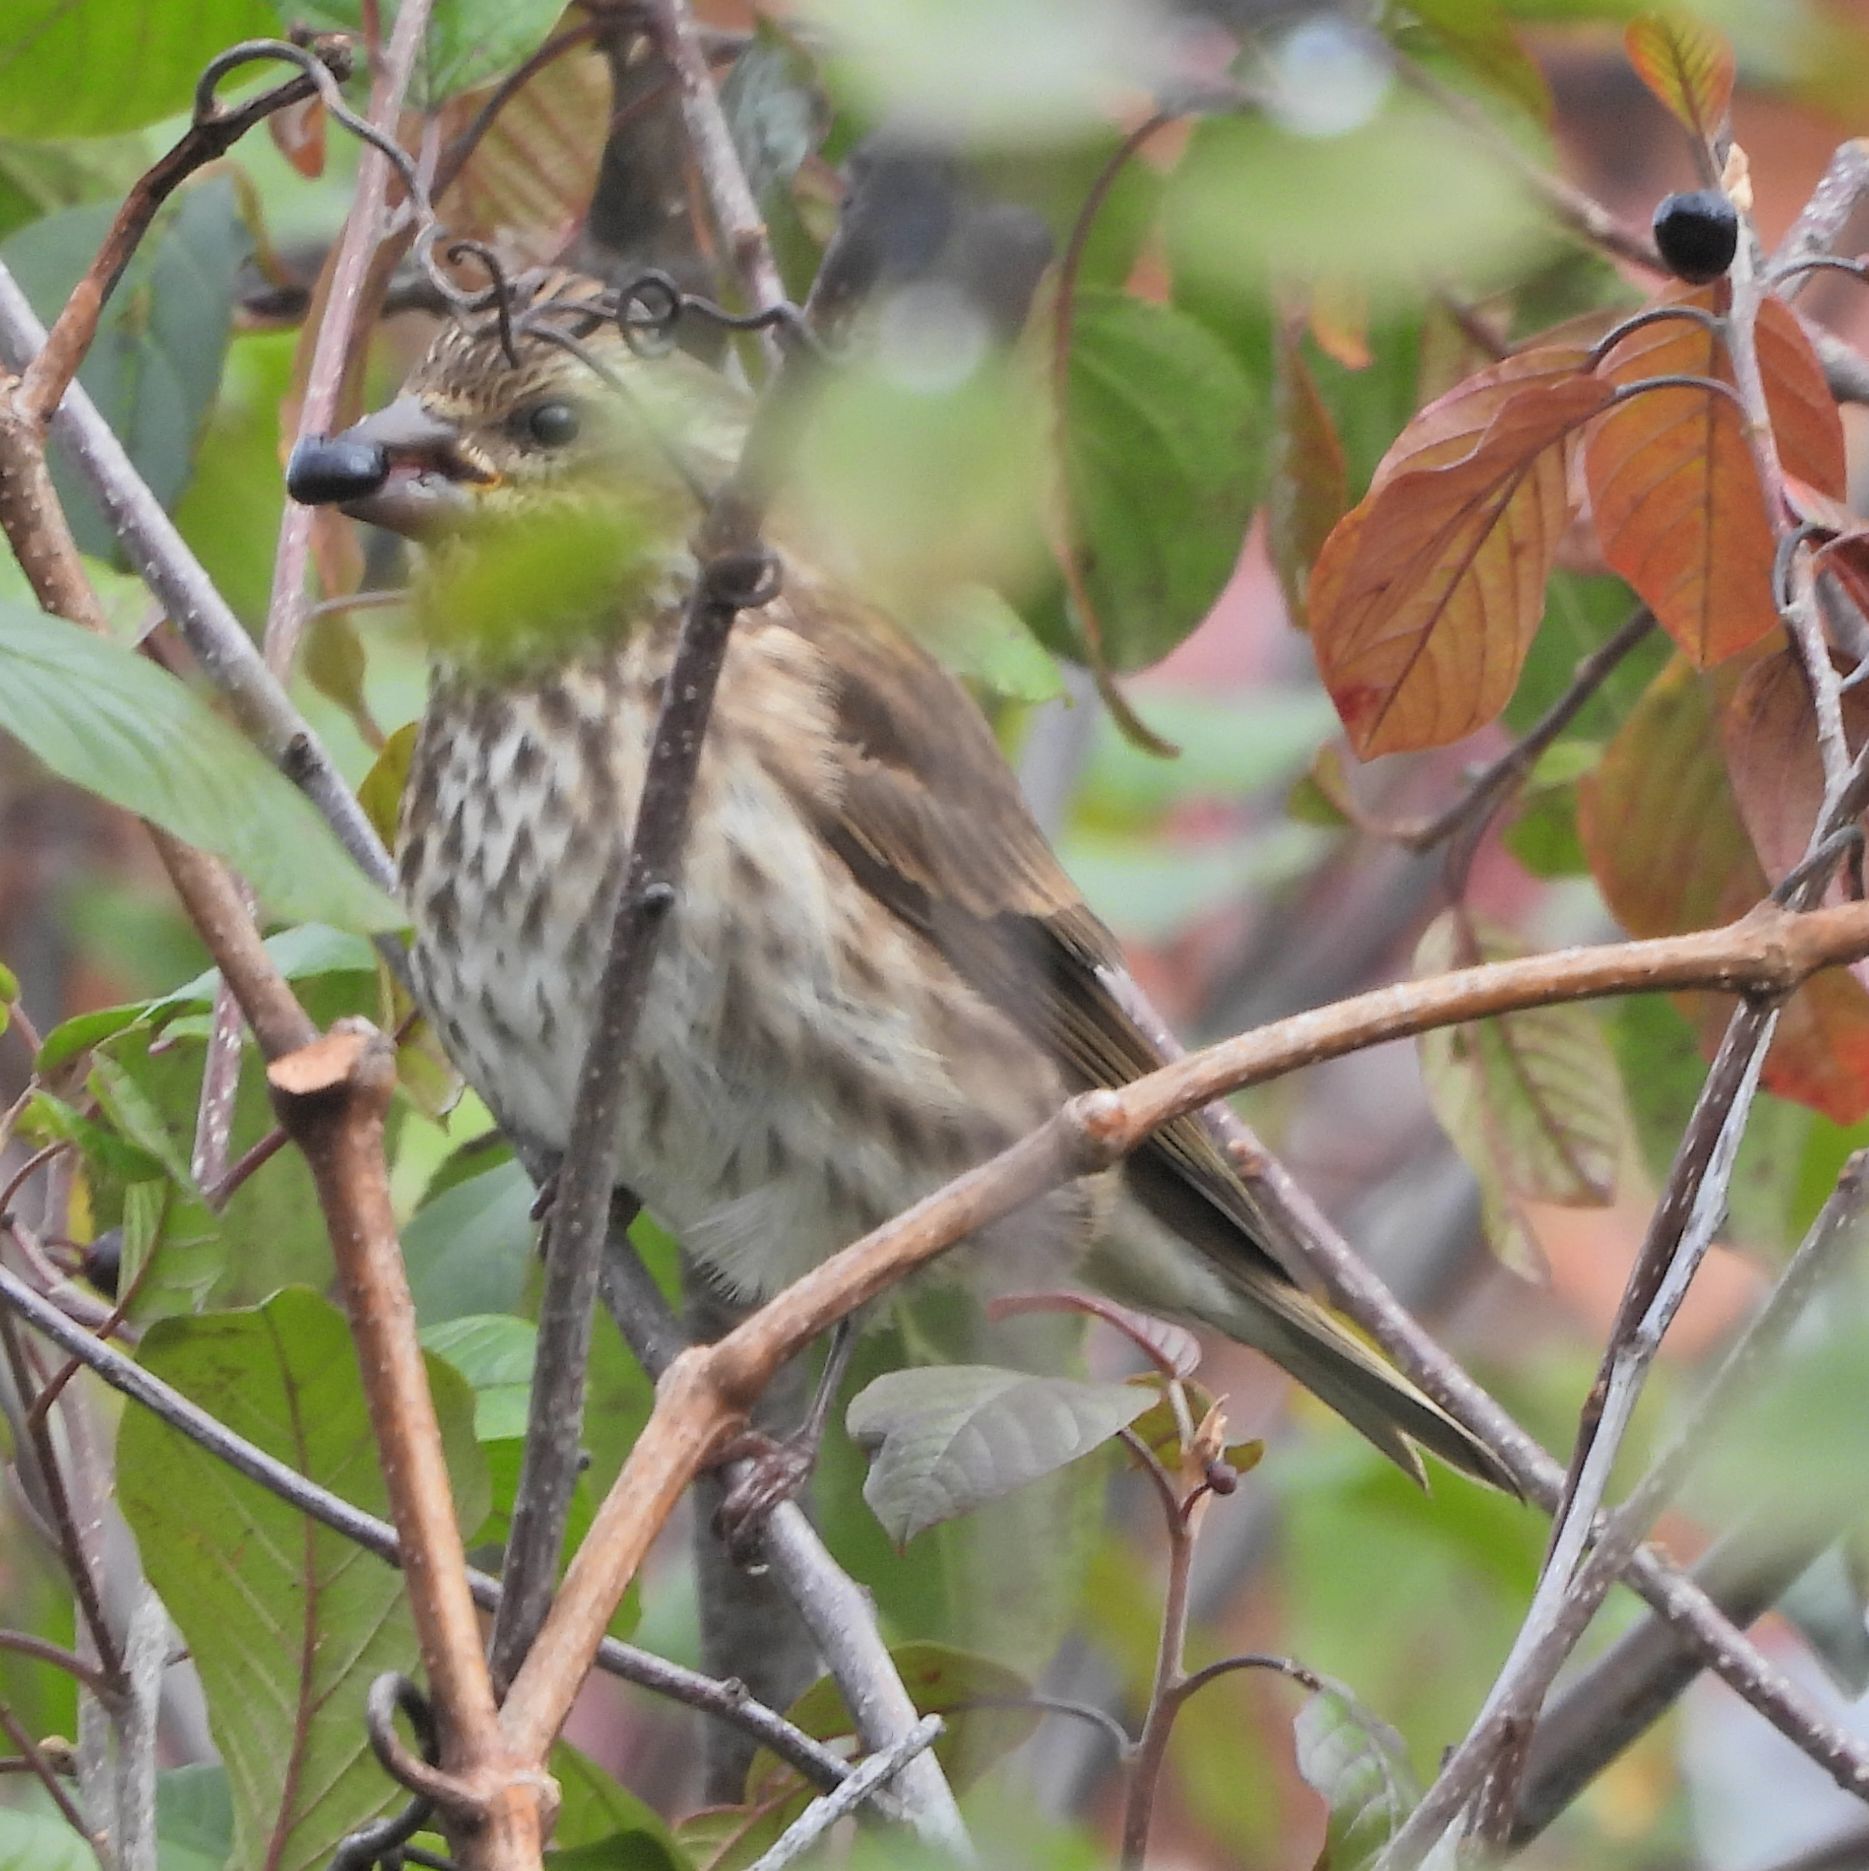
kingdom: Animalia
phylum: Chordata
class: Aves
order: Passeriformes
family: Fringillidae
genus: Haemorhous
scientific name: Haemorhous purpureus
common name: Purple finch
